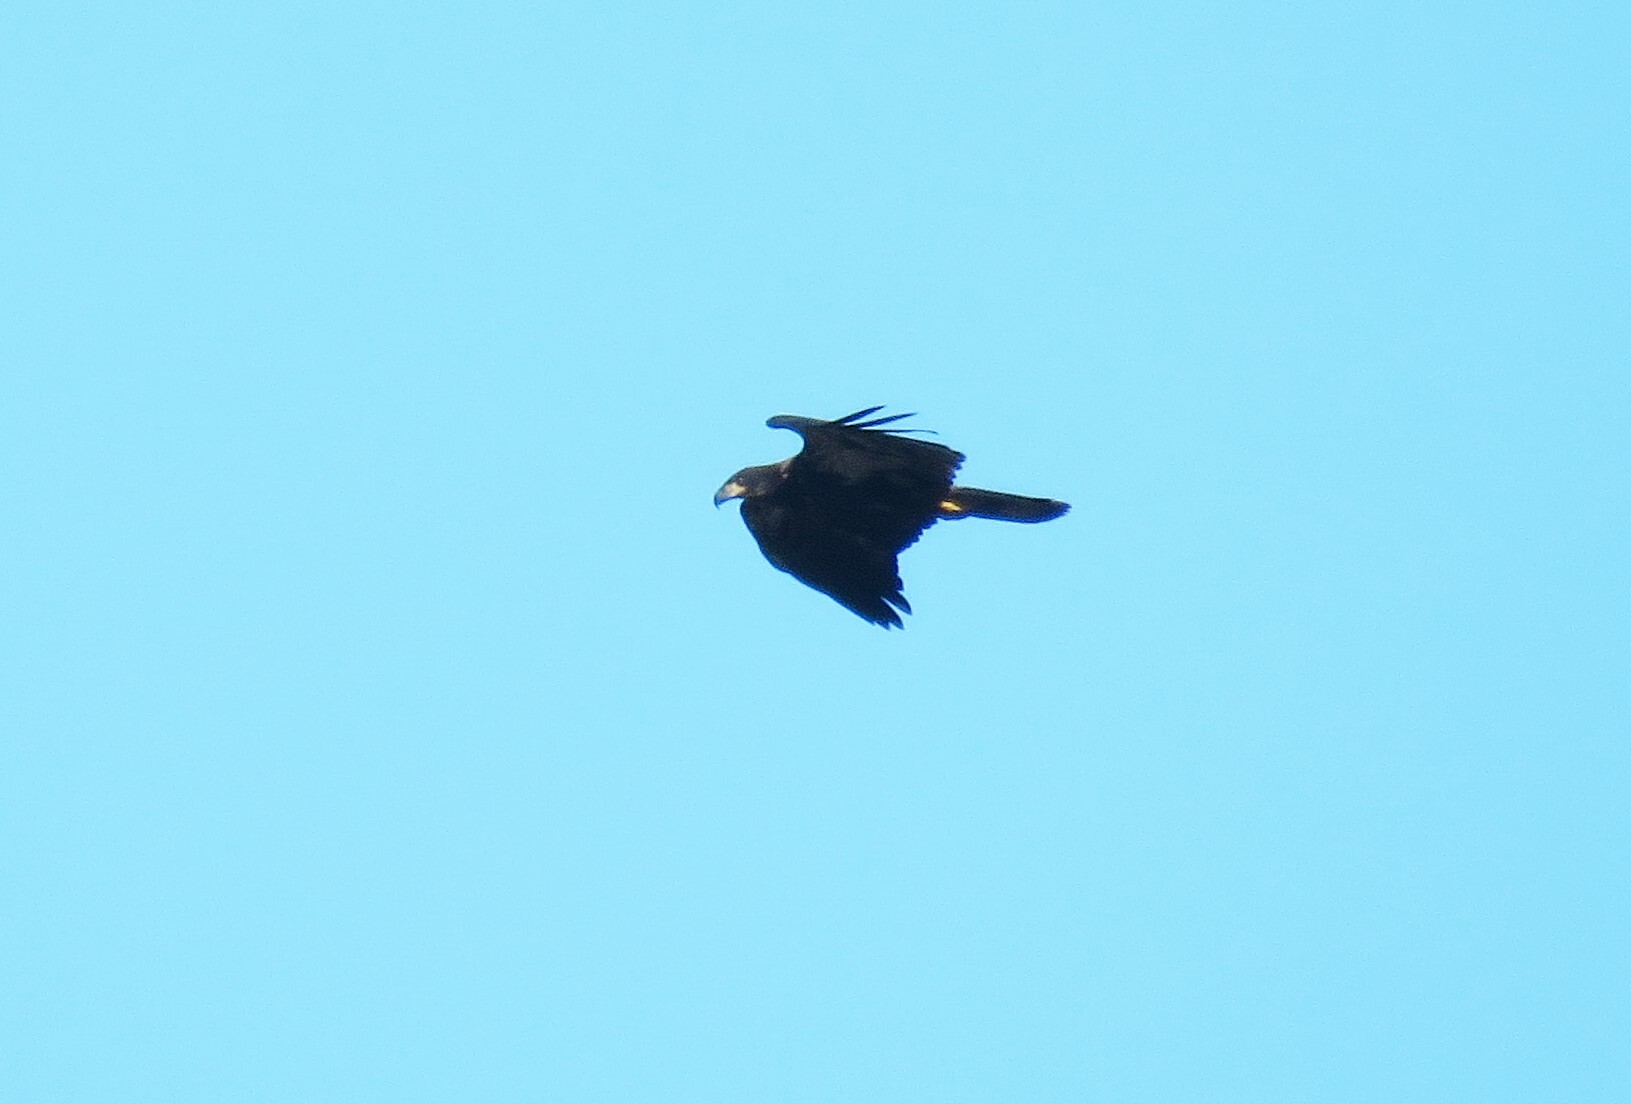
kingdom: Animalia
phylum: Chordata
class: Aves
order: Accipitriformes
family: Accipitridae
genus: Haliaeetus
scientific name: Haliaeetus leucocephalus
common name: Bald eagle
